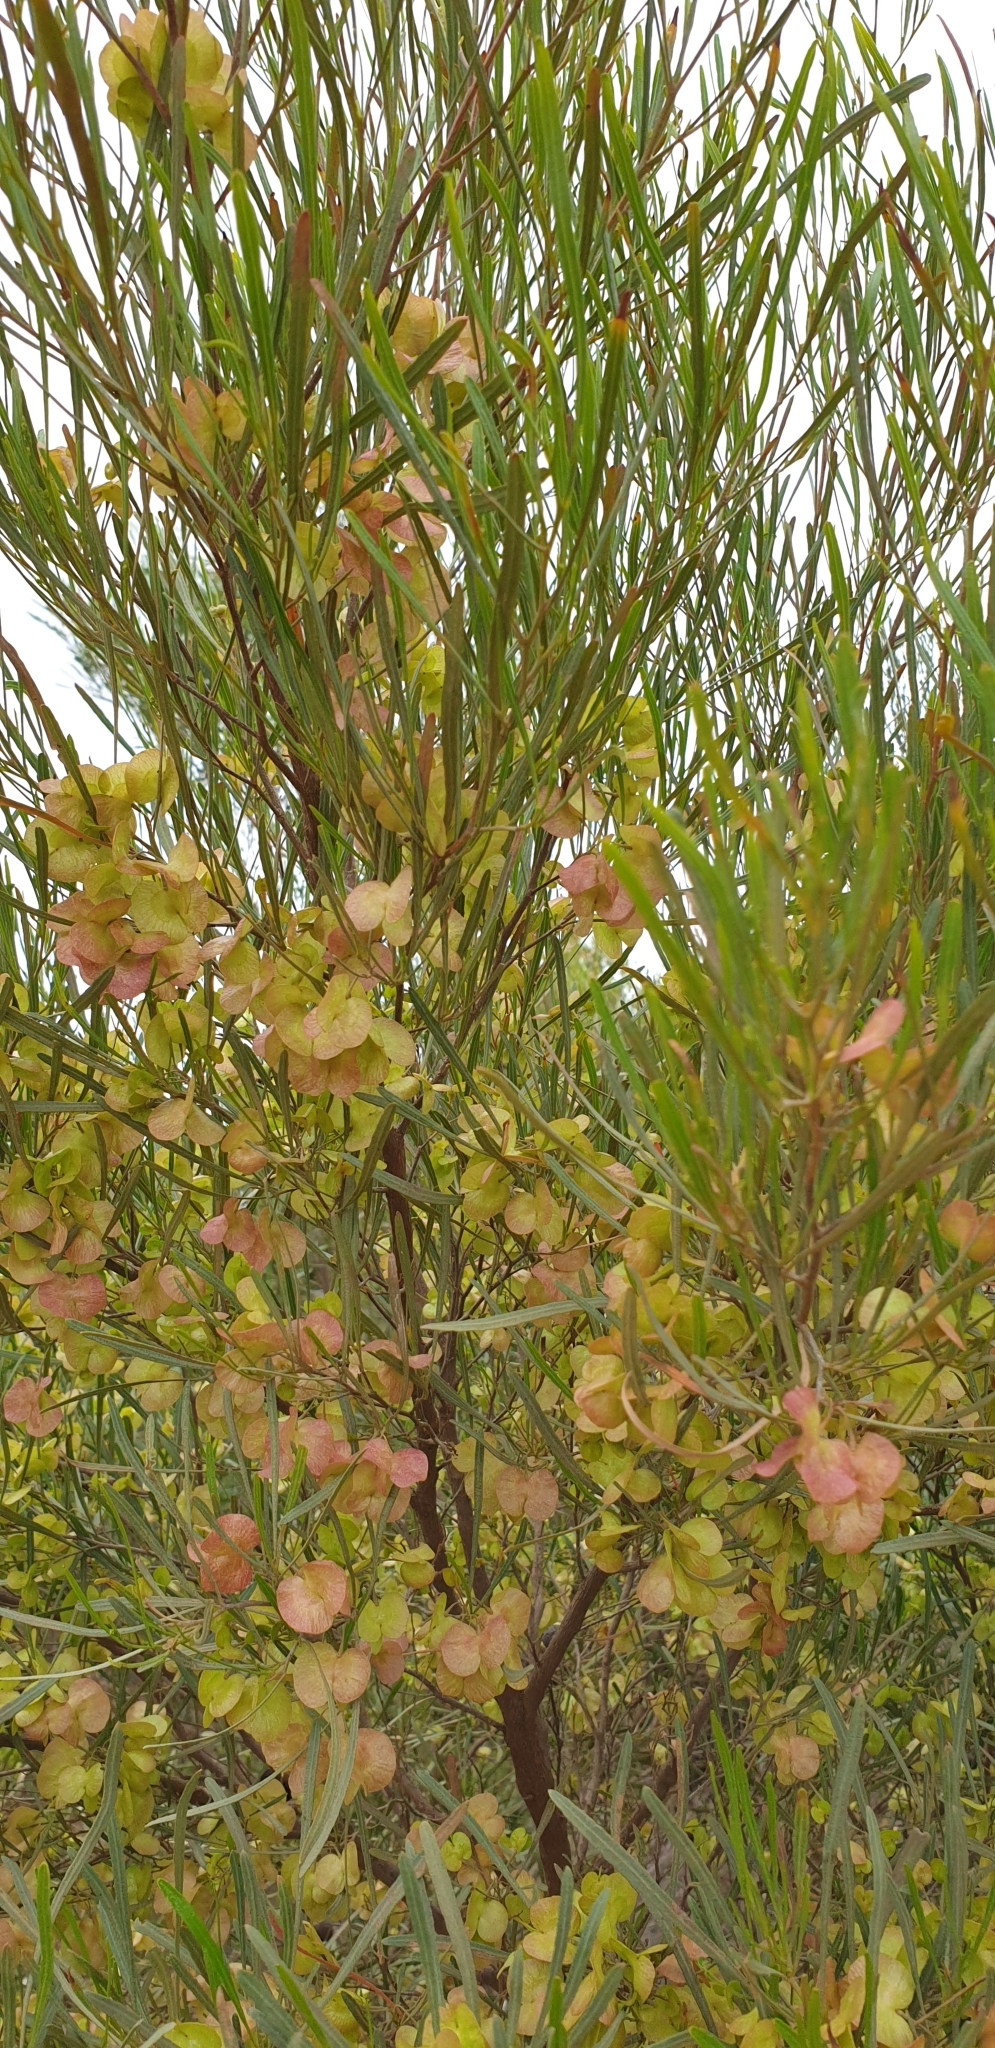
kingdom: Plantae
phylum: Tracheophyta
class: Magnoliopsida
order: Sapindales
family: Sapindaceae
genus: Dodonaea
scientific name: Dodonaea viscosa
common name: Hopbush
